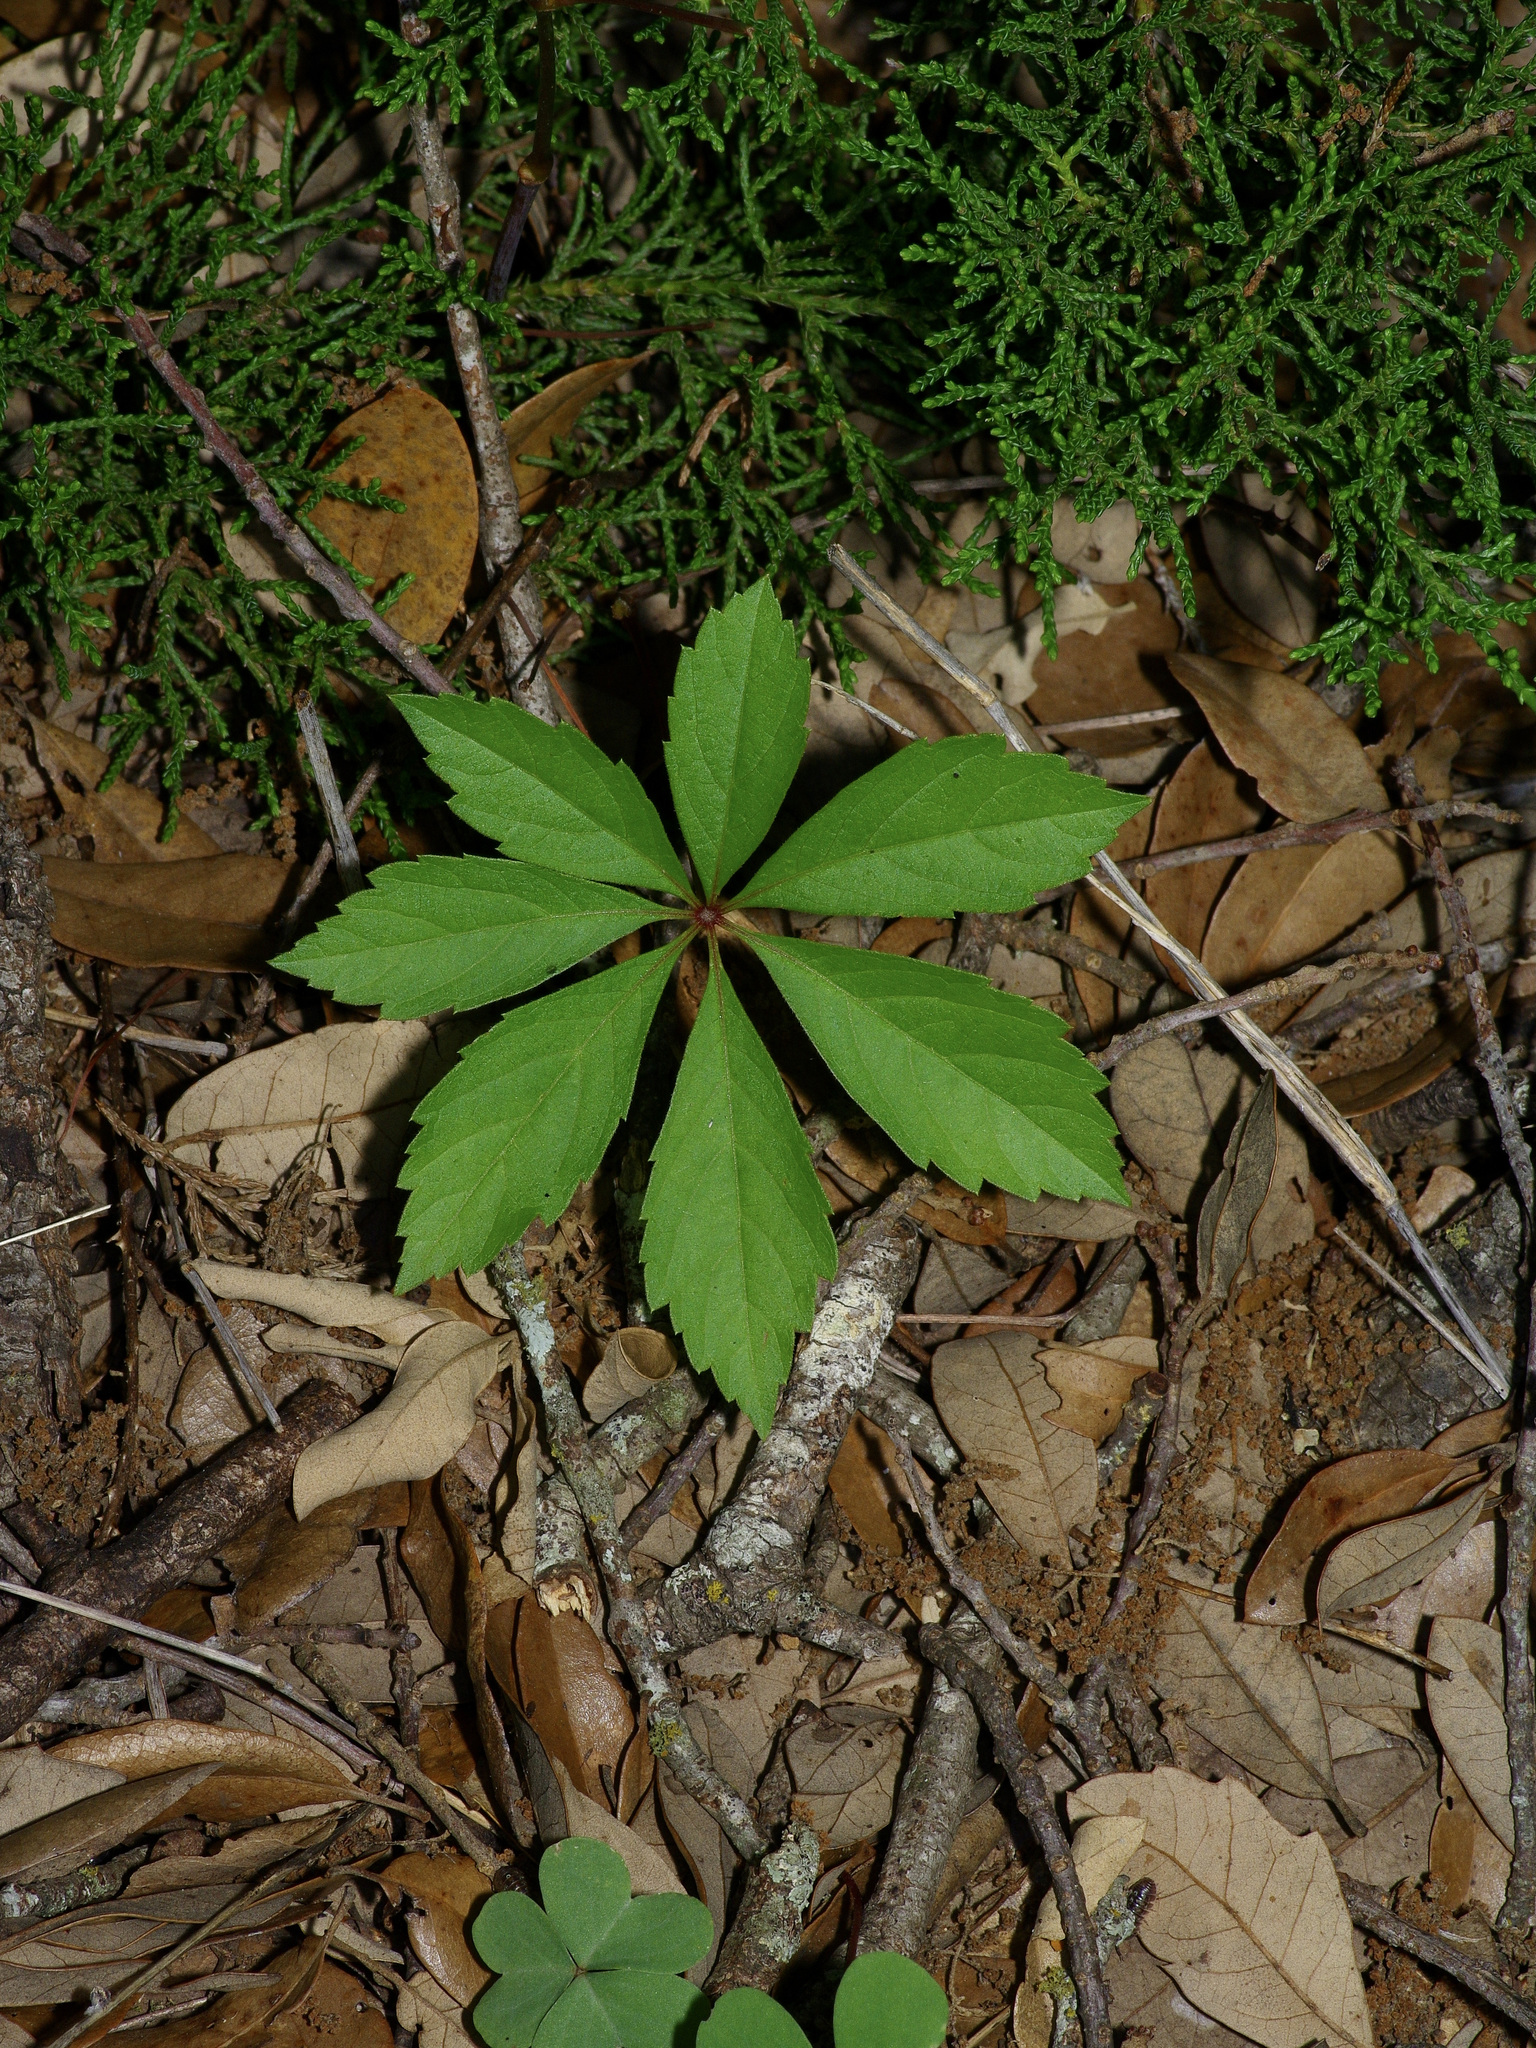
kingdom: Plantae
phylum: Tracheophyta
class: Magnoliopsida
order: Vitales
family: Vitaceae
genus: Parthenocissus
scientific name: Parthenocissus heptaphylla
